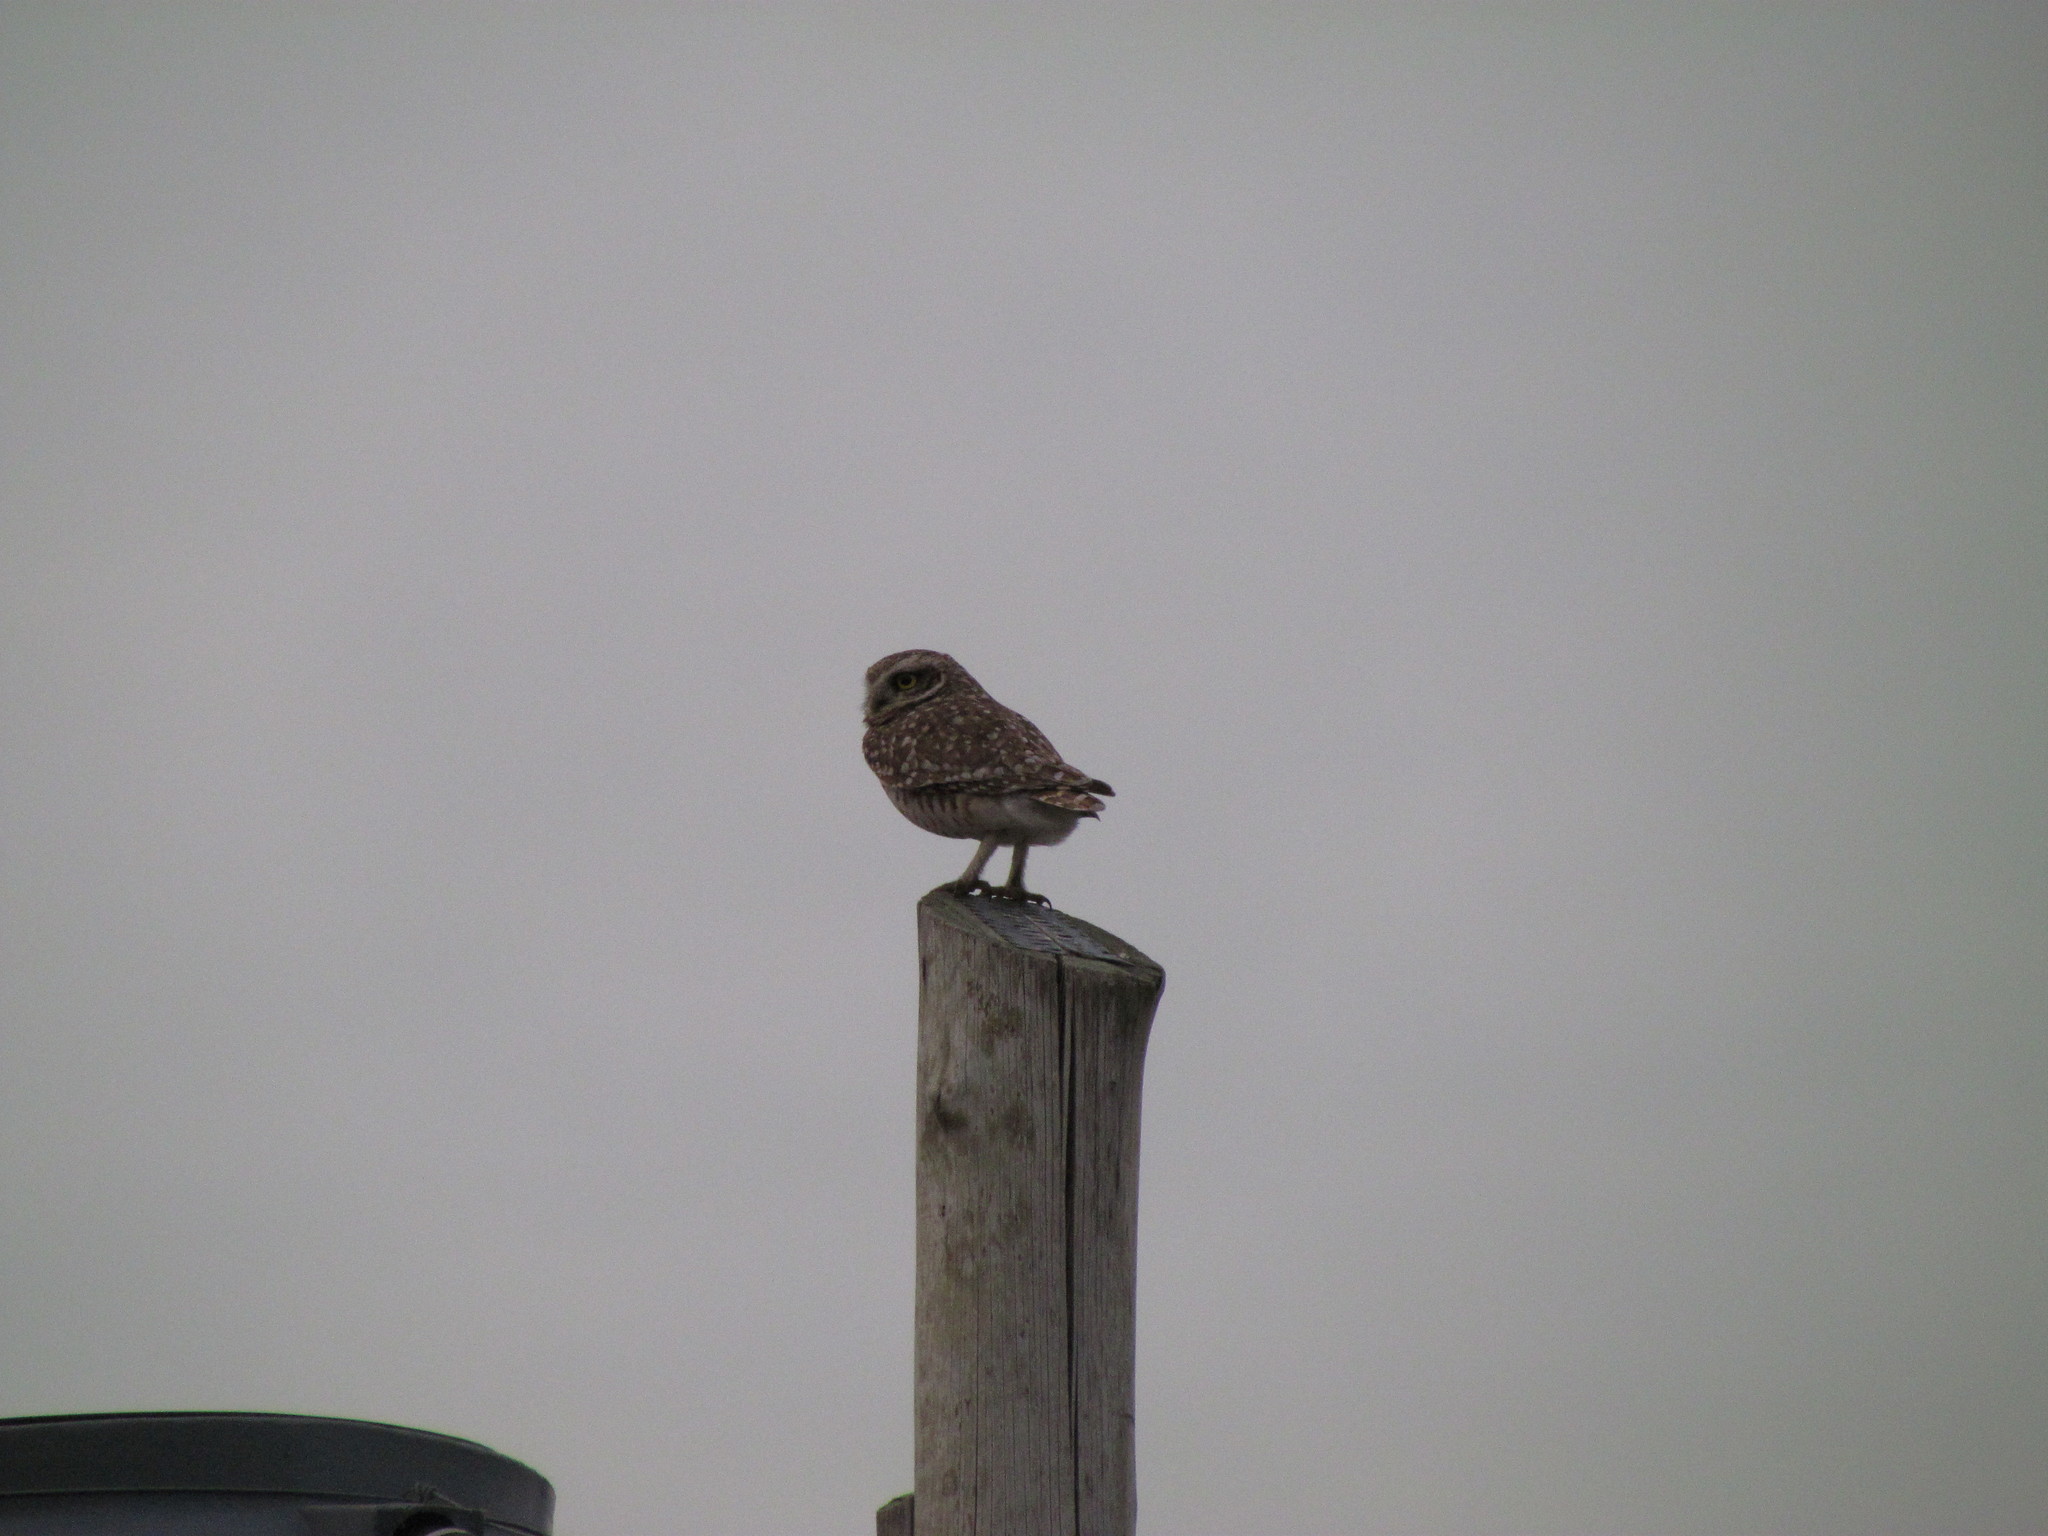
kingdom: Animalia
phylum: Chordata
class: Aves
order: Strigiformes
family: Strigidae
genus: Athene
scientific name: Athene cunicularia
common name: Burrowing owl
